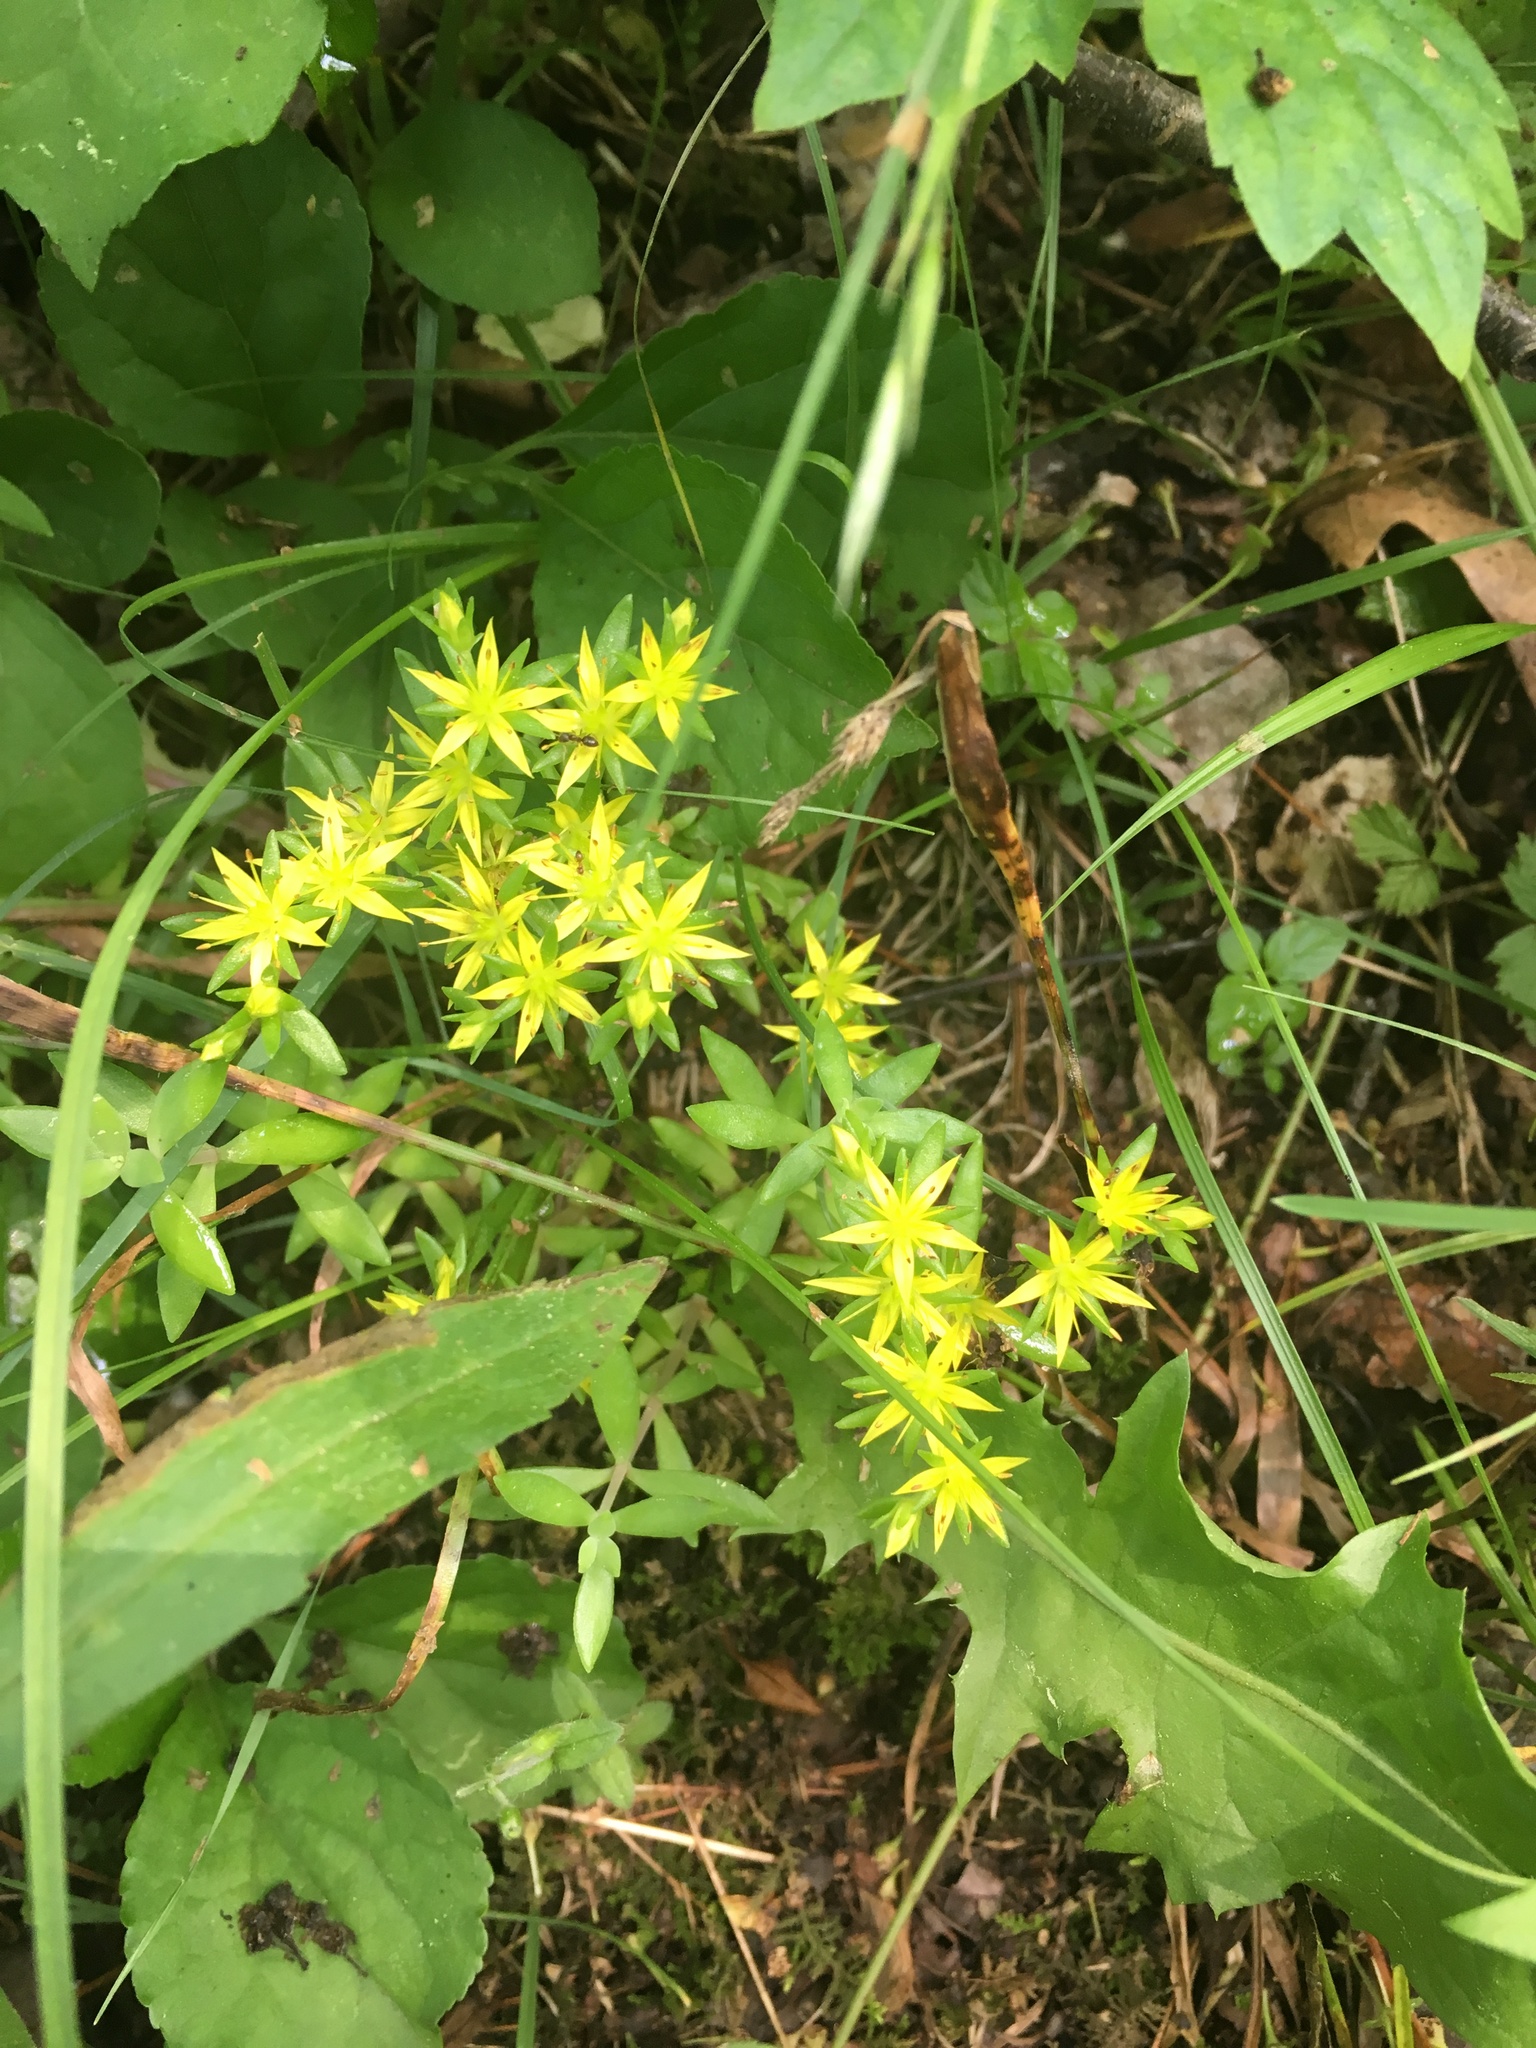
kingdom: Plantae
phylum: Tracheophyta
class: Magnoliopsida
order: Saxifragales
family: Crassulaceae
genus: Sedum
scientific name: Sedum sarmentosum
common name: Stringy stonecrop
